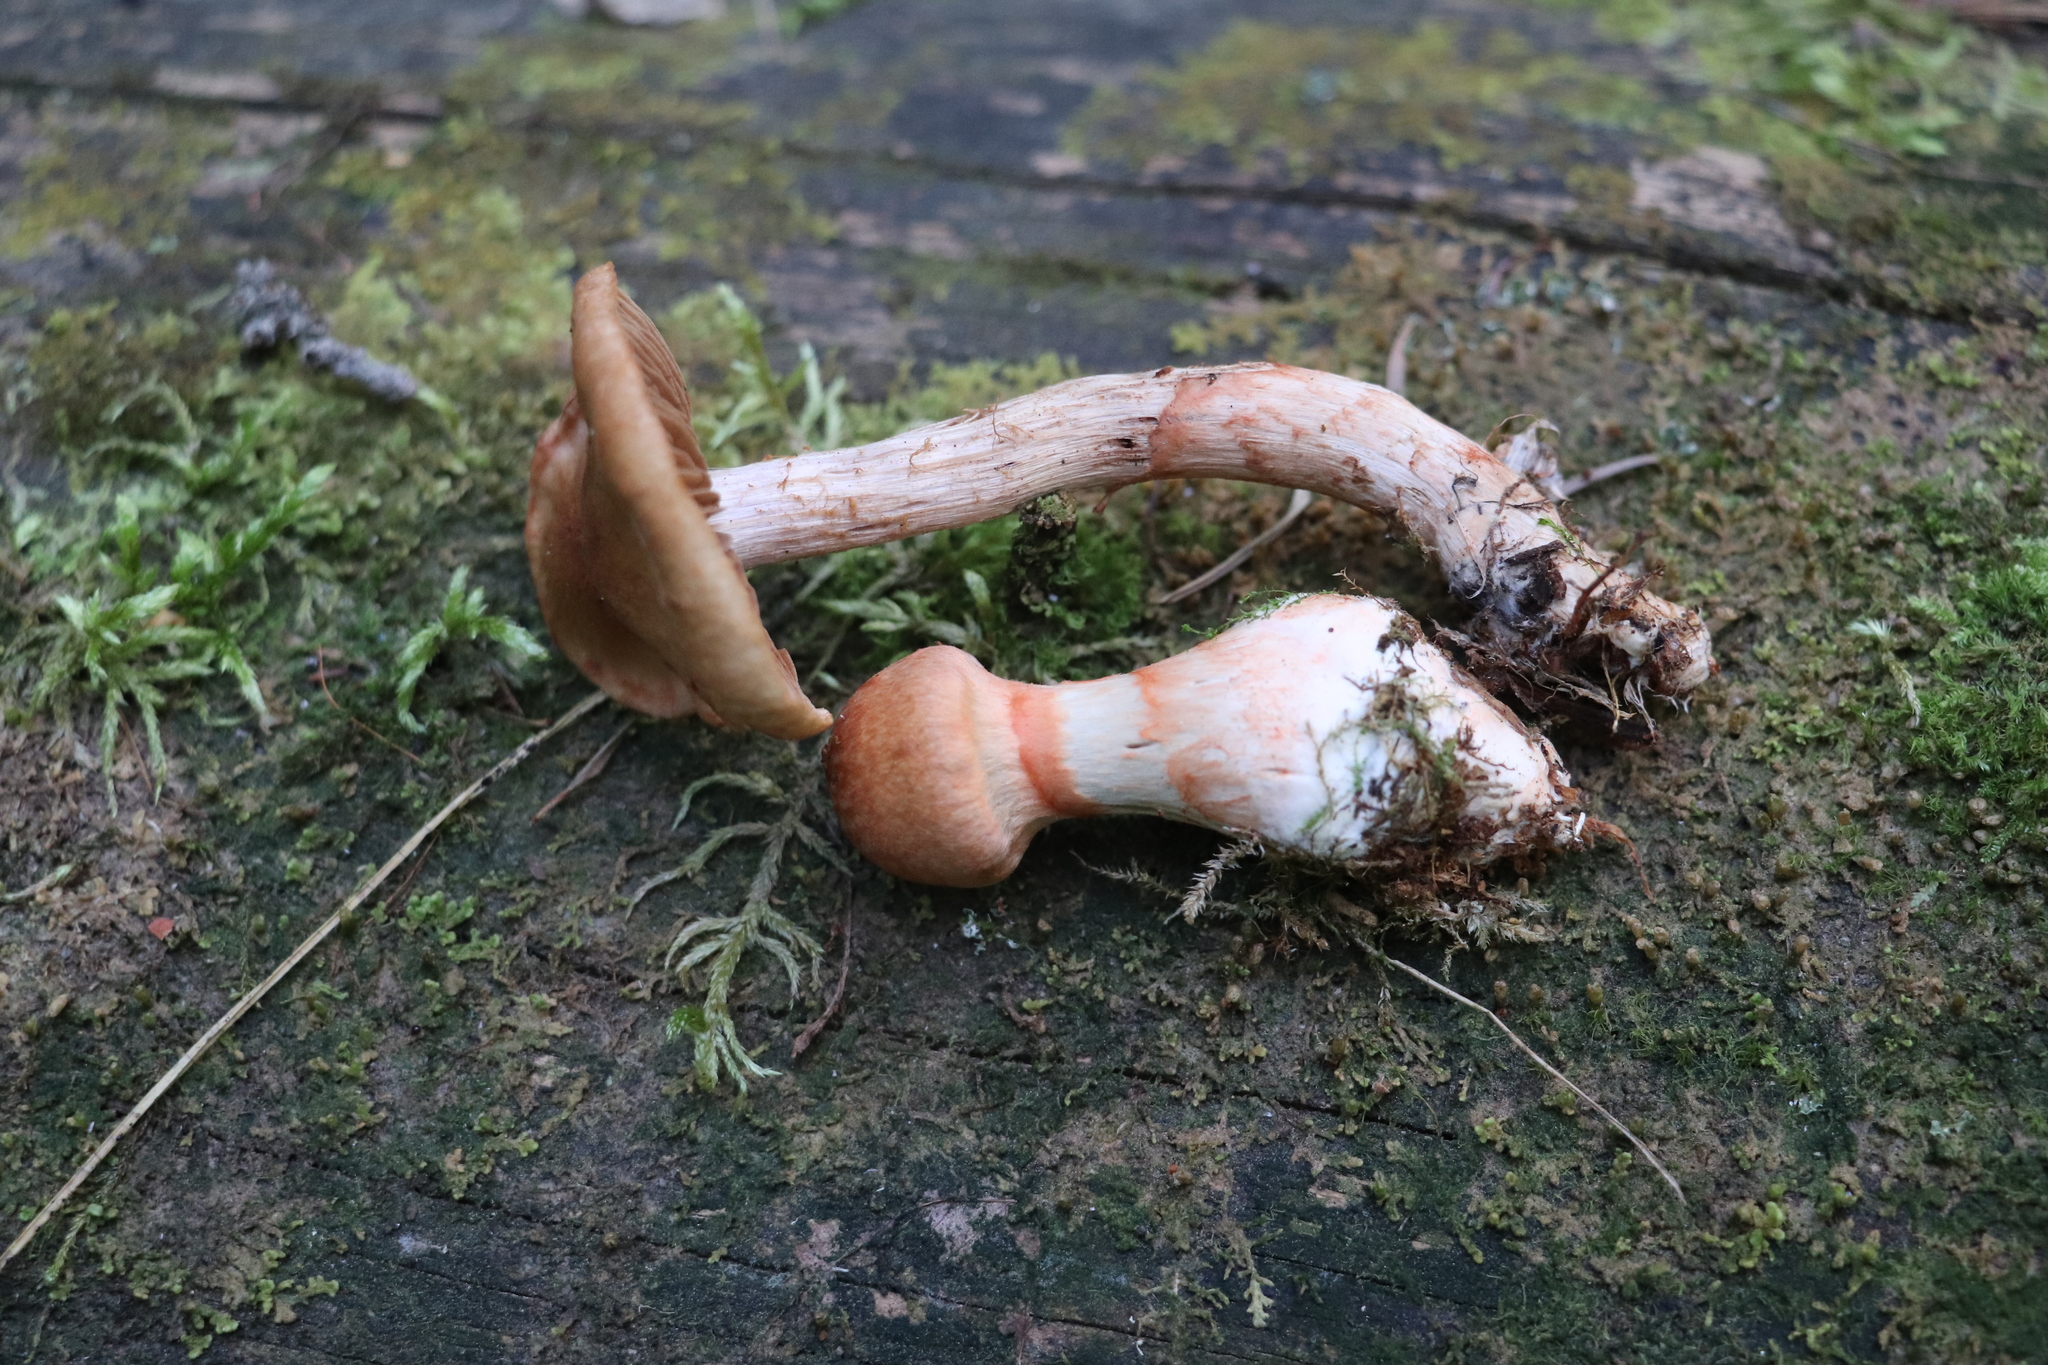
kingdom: Fungi
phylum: Basidiomycota
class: Agaricomycetes
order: Agaricales
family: Cortinariaceae
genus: Cortinarius
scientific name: Cortinarius armillatus
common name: Red banded webcap
